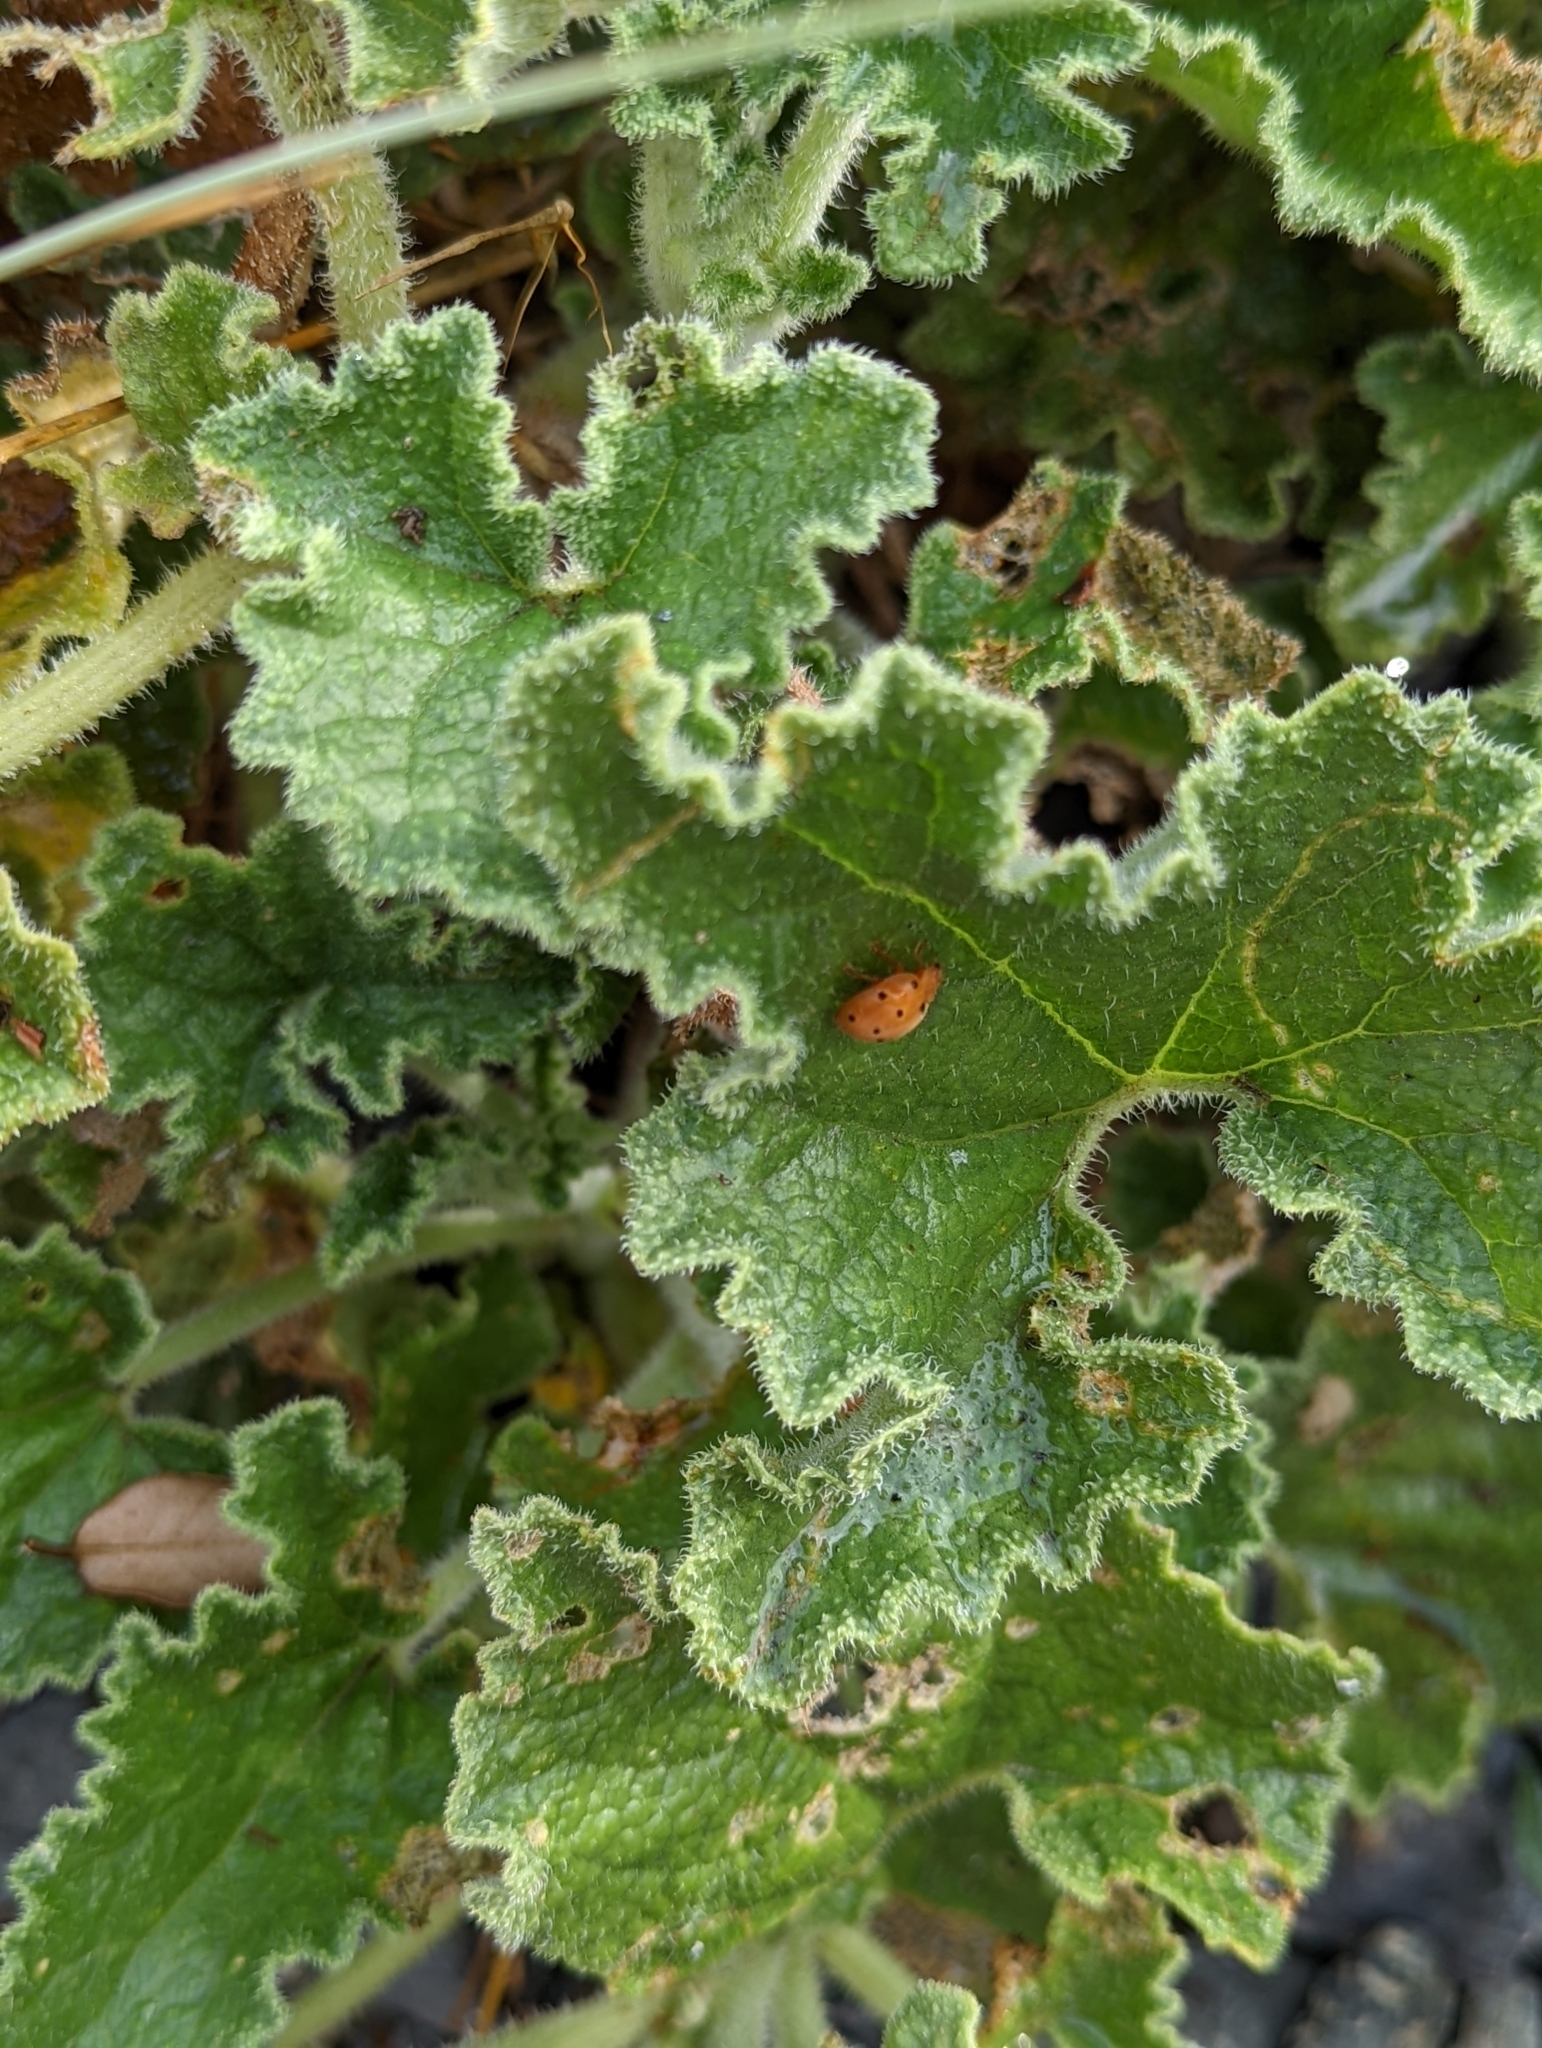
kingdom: Plantae
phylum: Tracheophyta
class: Magnoliopsida
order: Cucurbitales
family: Cucurbitaceae
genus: Ecballium
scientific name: Ecballium elaterium
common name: Squirting cucumber
